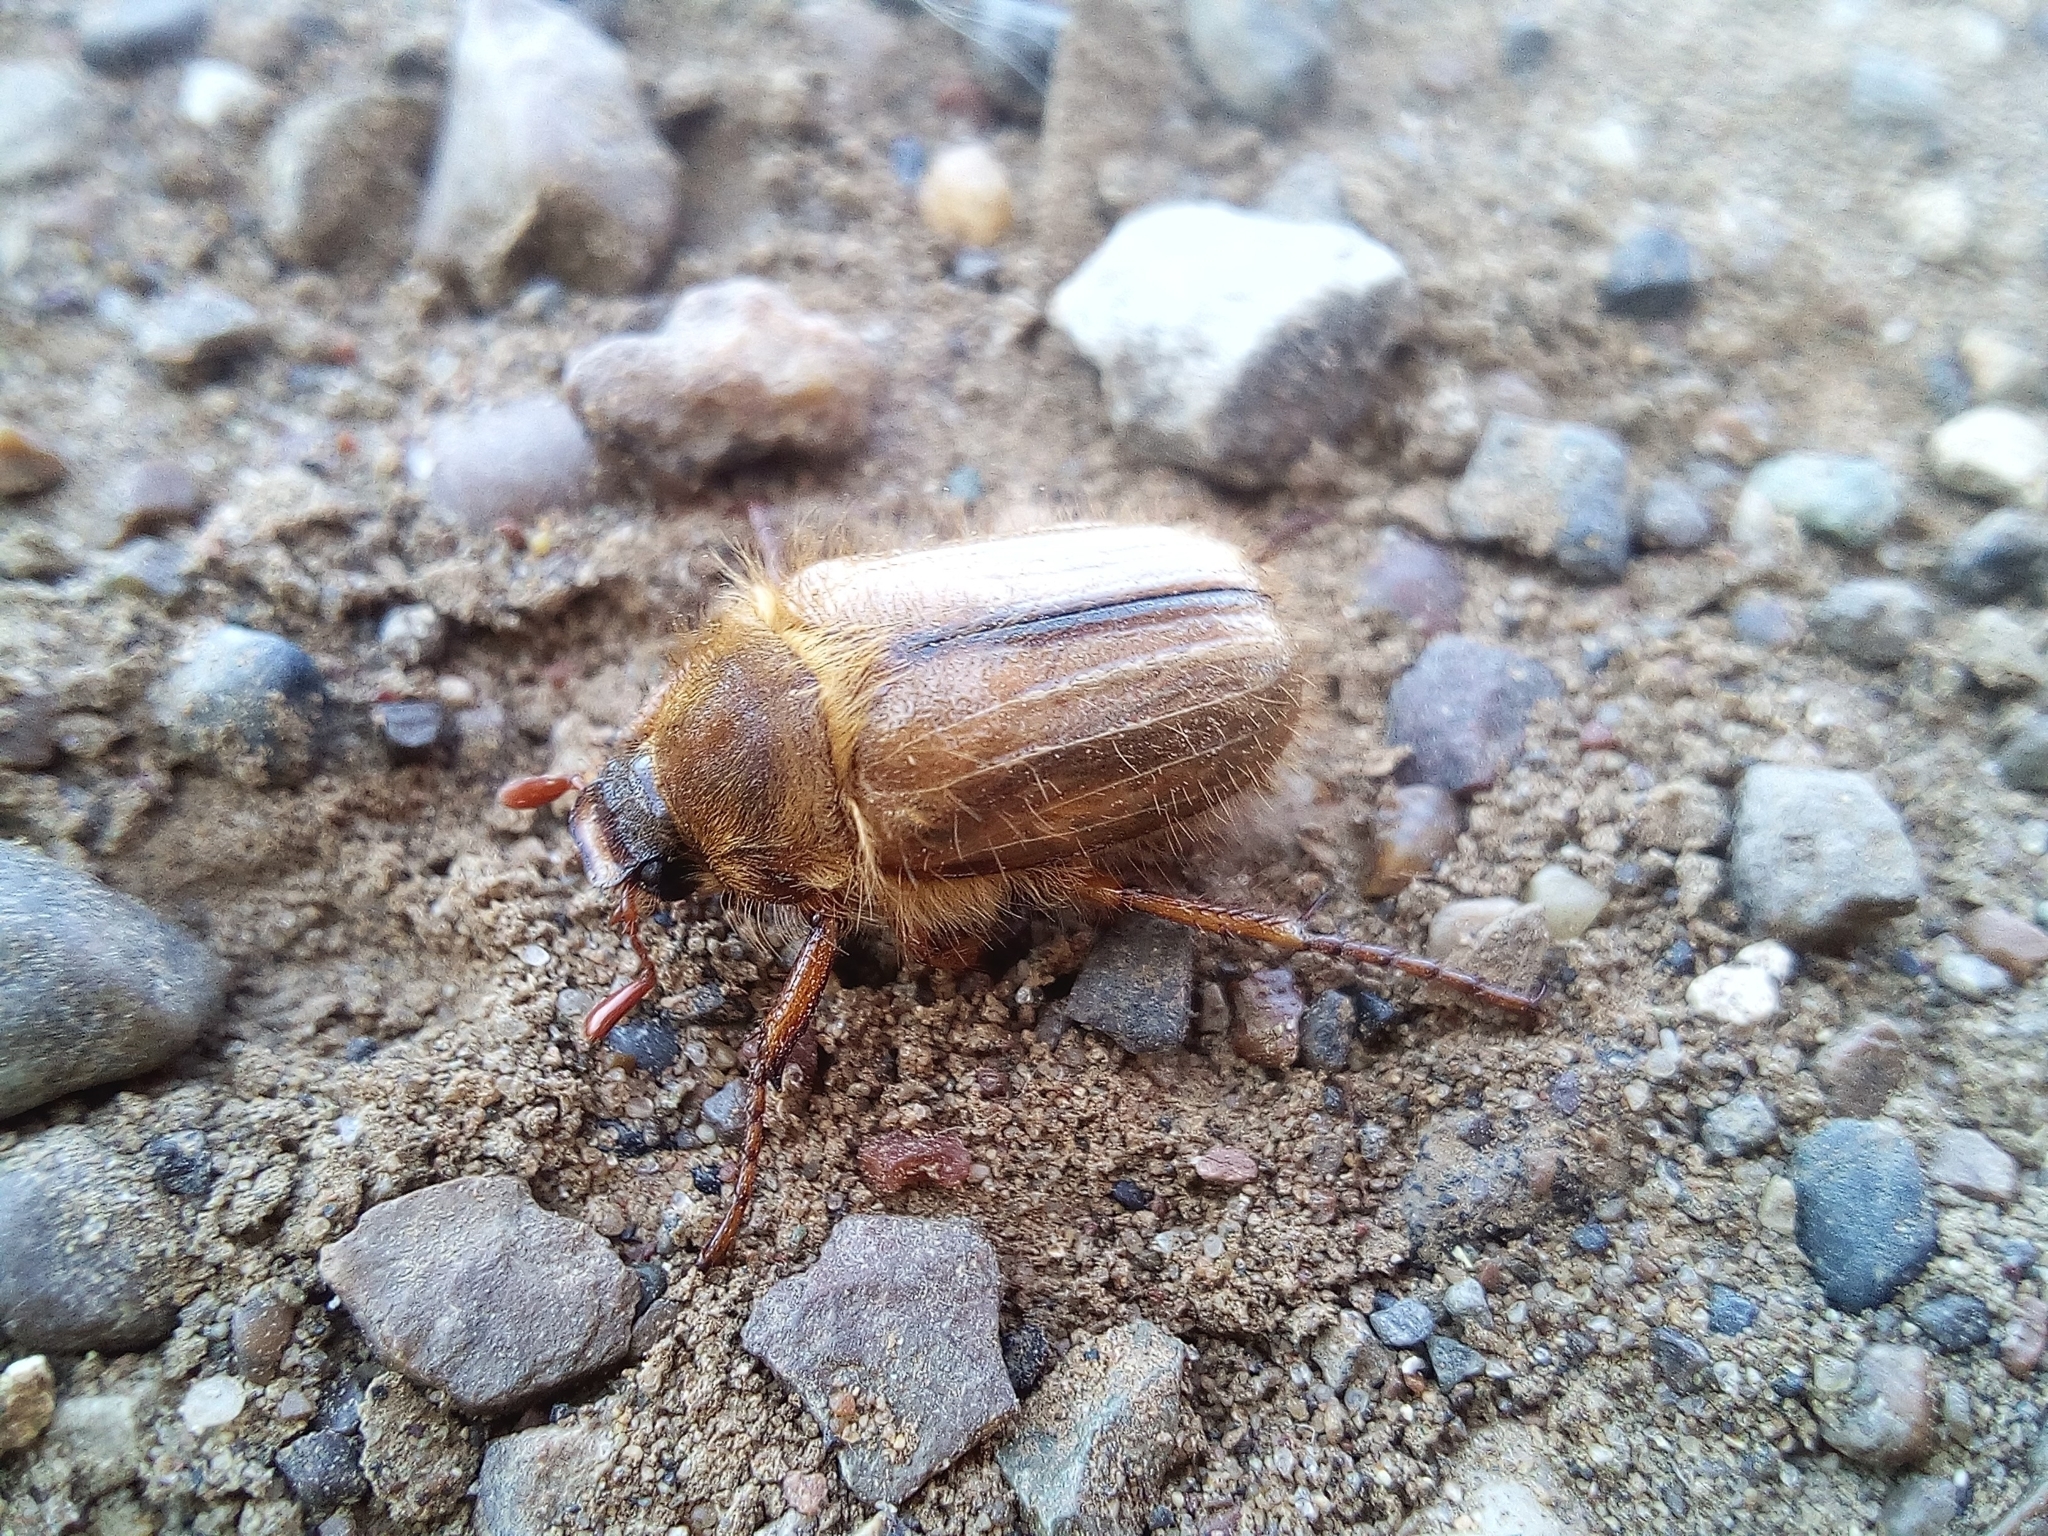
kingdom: Animalia
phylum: Arthropoda
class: Insecta
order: Coleoptera
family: Scarabaeidae
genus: Amphimallon
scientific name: Amphimallon solstitiale
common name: Summer chafer
